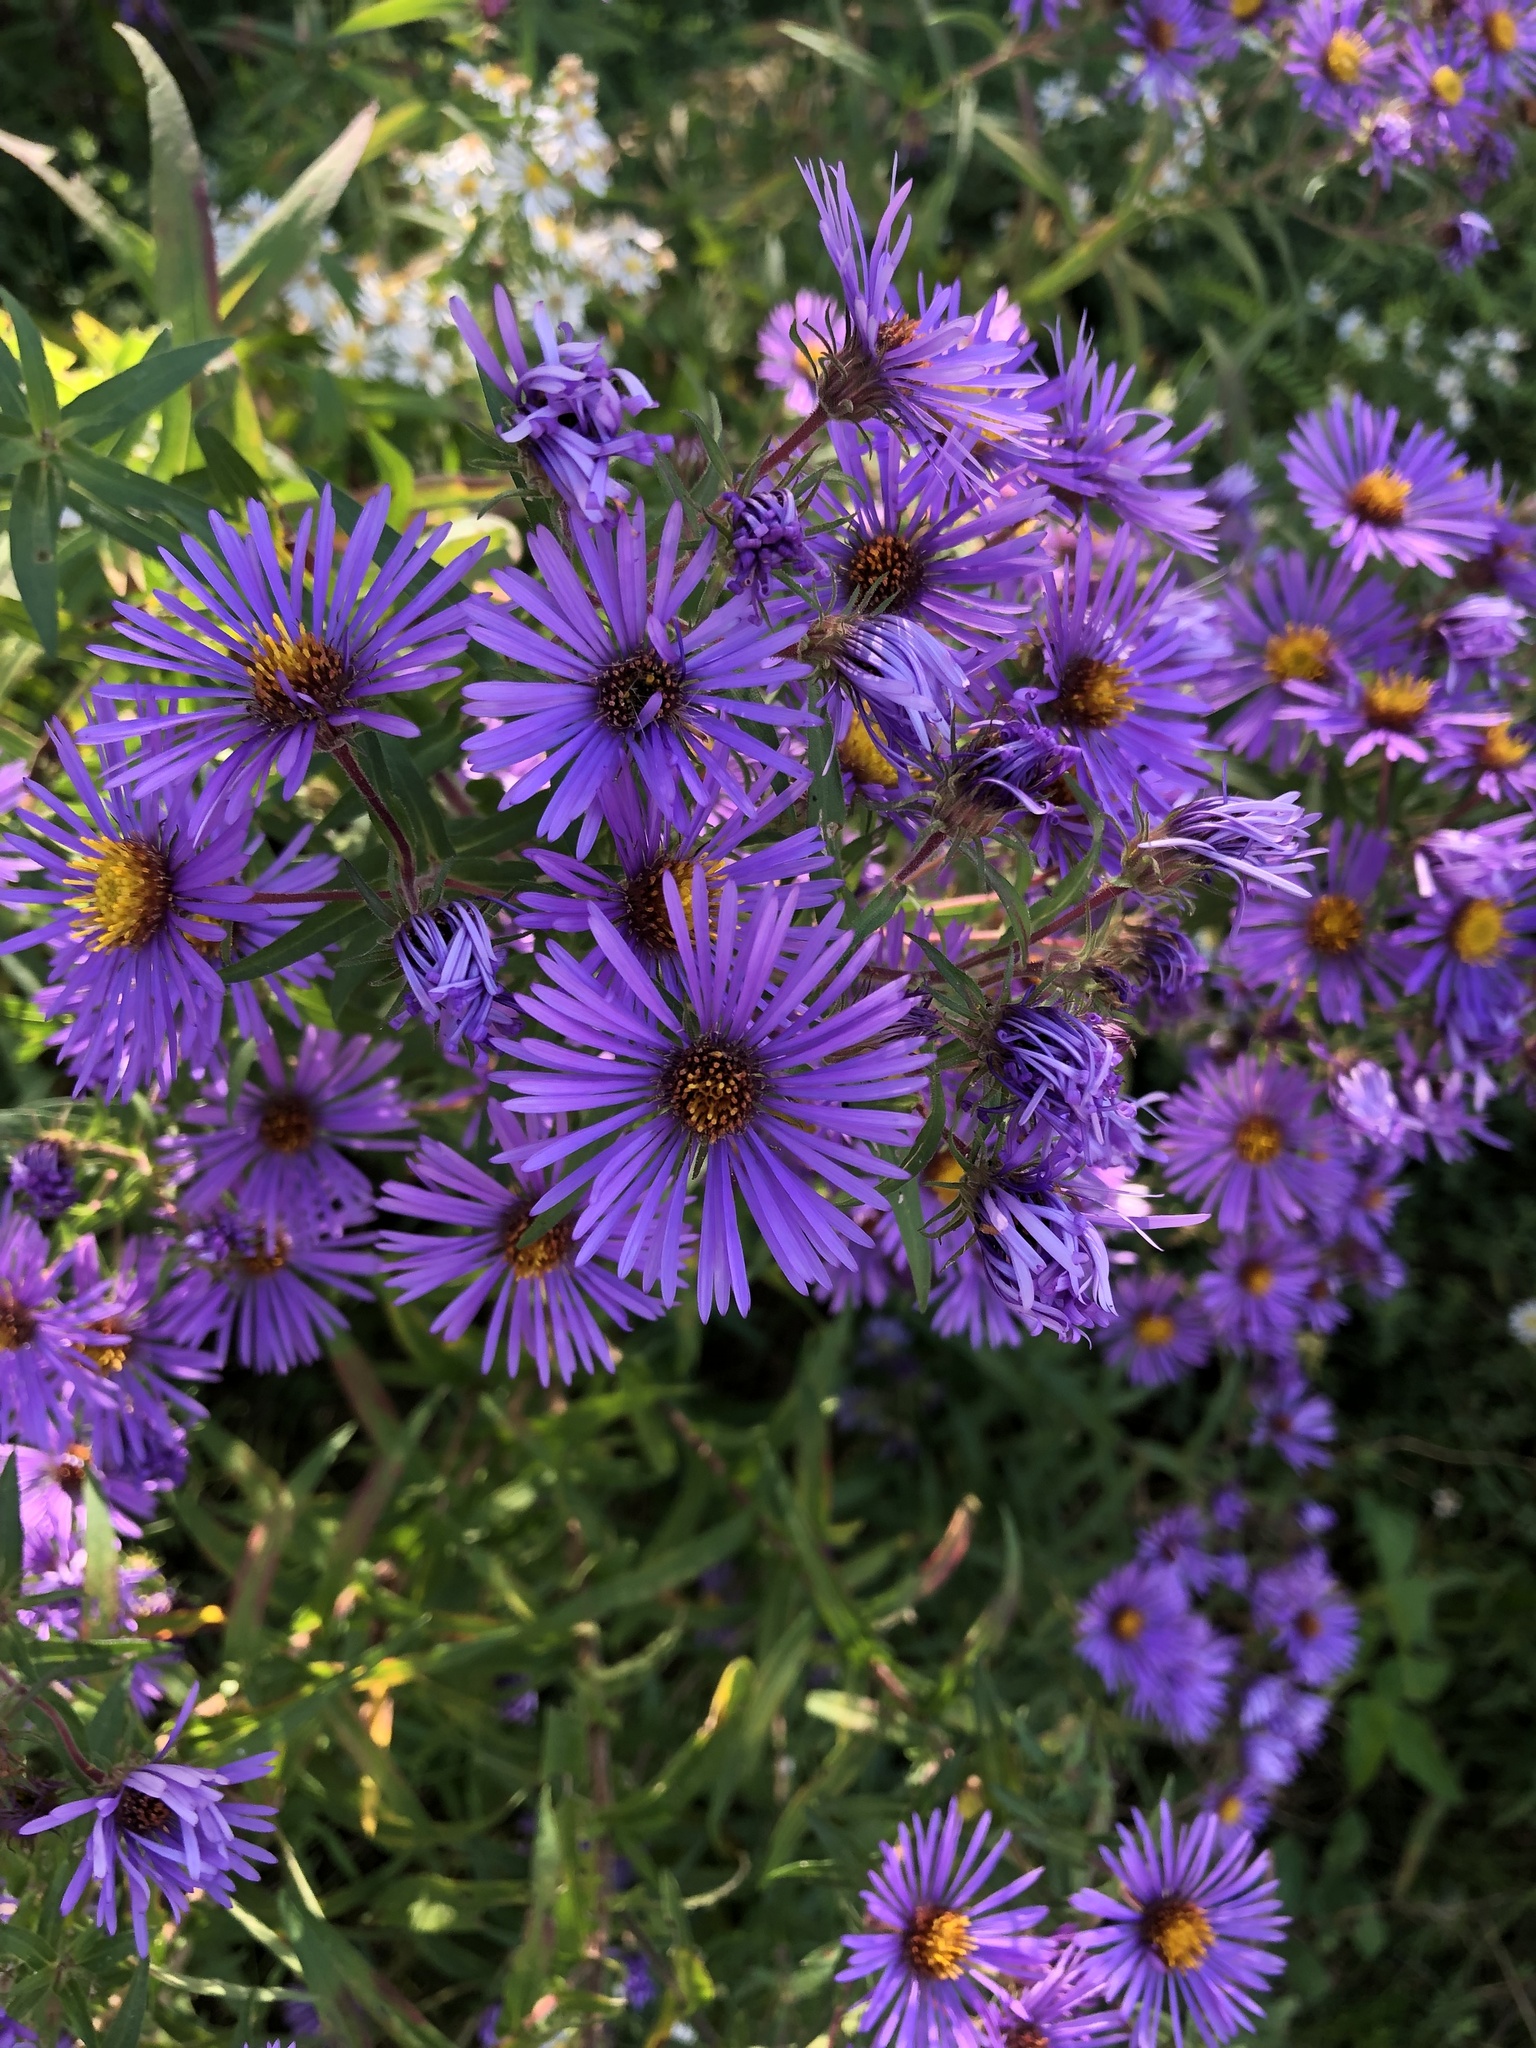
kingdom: Plantae
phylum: Tracheophyta
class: Magnoliopsida
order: Asterales
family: Asteraceae
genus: Symphyotrichum
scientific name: Symphyotrichum novae-angliae
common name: Michaelmas daisy
